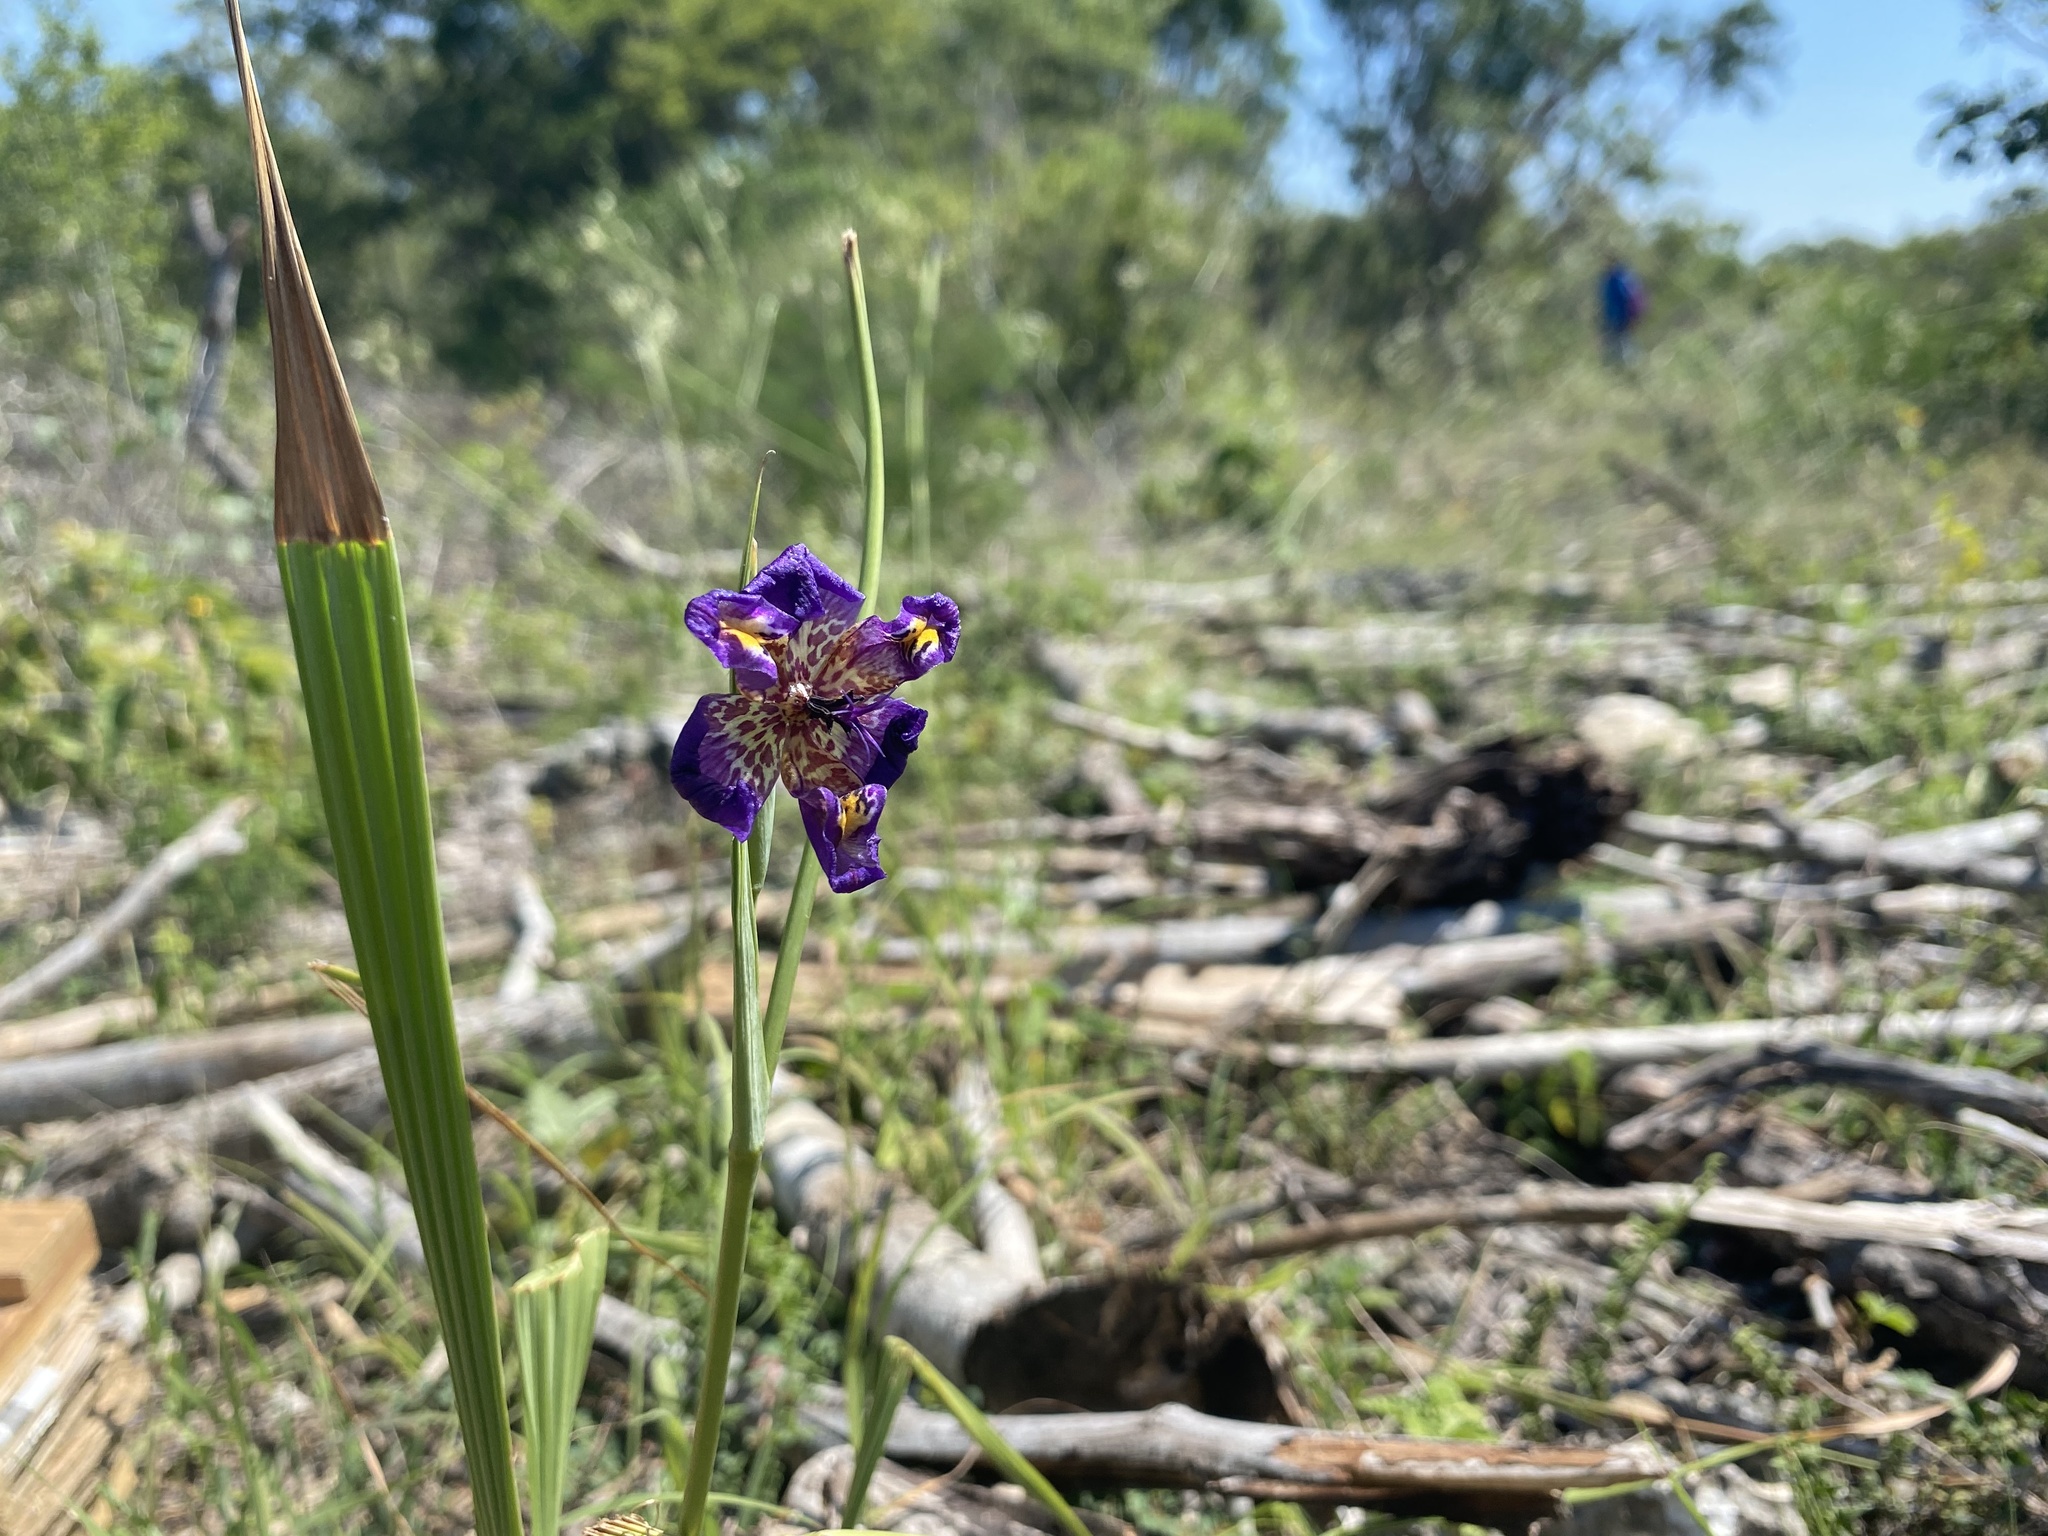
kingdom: Plantae
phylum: Tracheophyta
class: Liliopsida
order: Asparagales
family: Iridaceae
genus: Alophia
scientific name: Alophia drummondii
